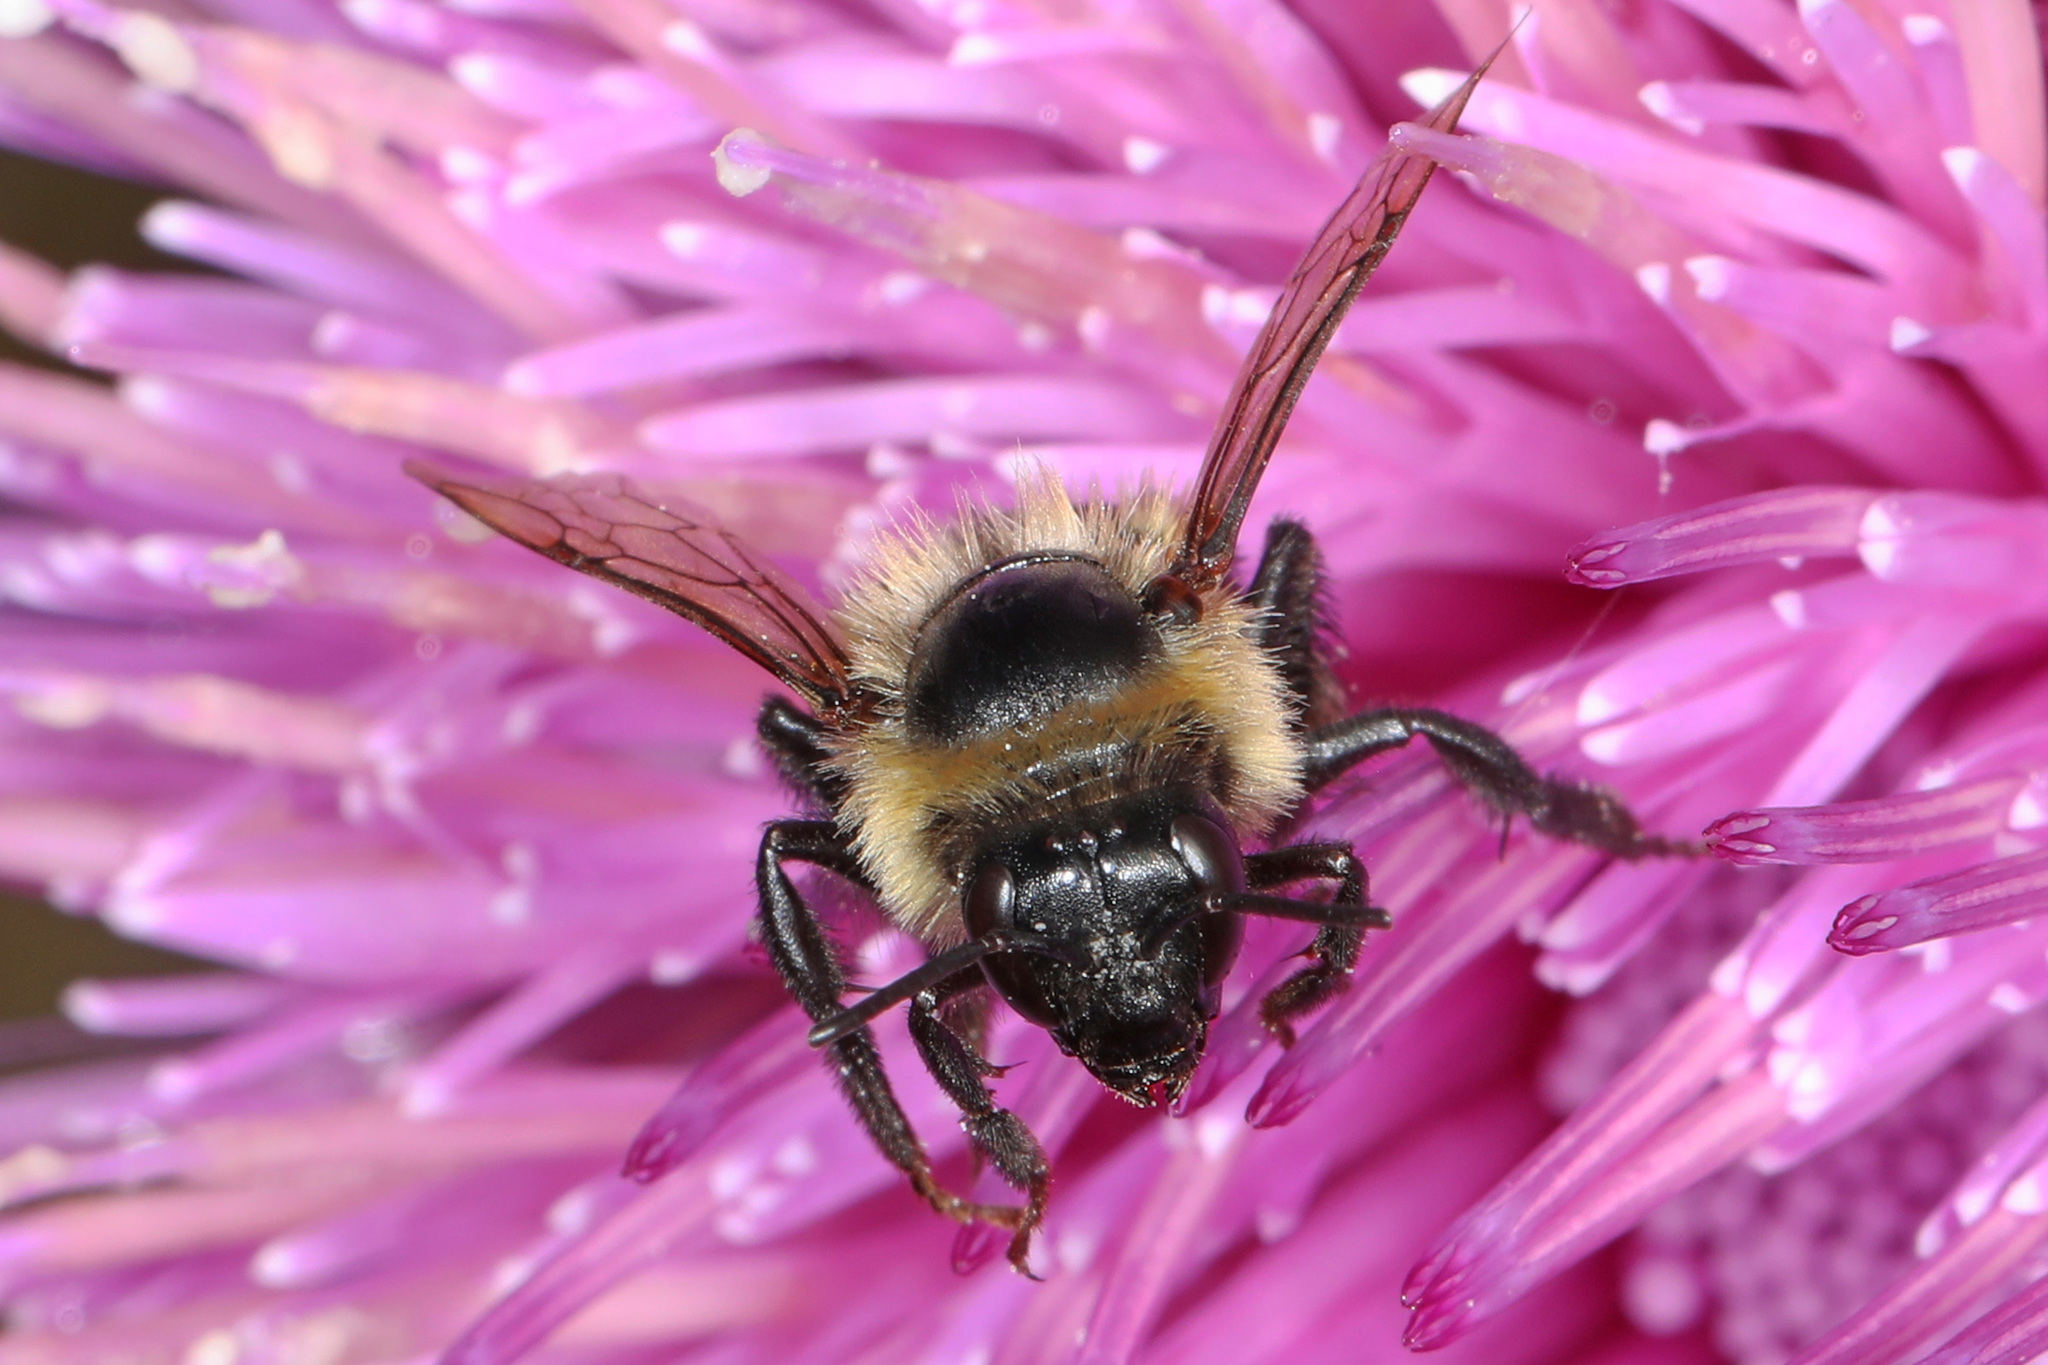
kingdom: Animalia
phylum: Arthropoda
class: Insecta
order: Hymenoptera
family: Apidae
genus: Bombus
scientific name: Bombus impatiens
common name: Common eastern bumble bee
